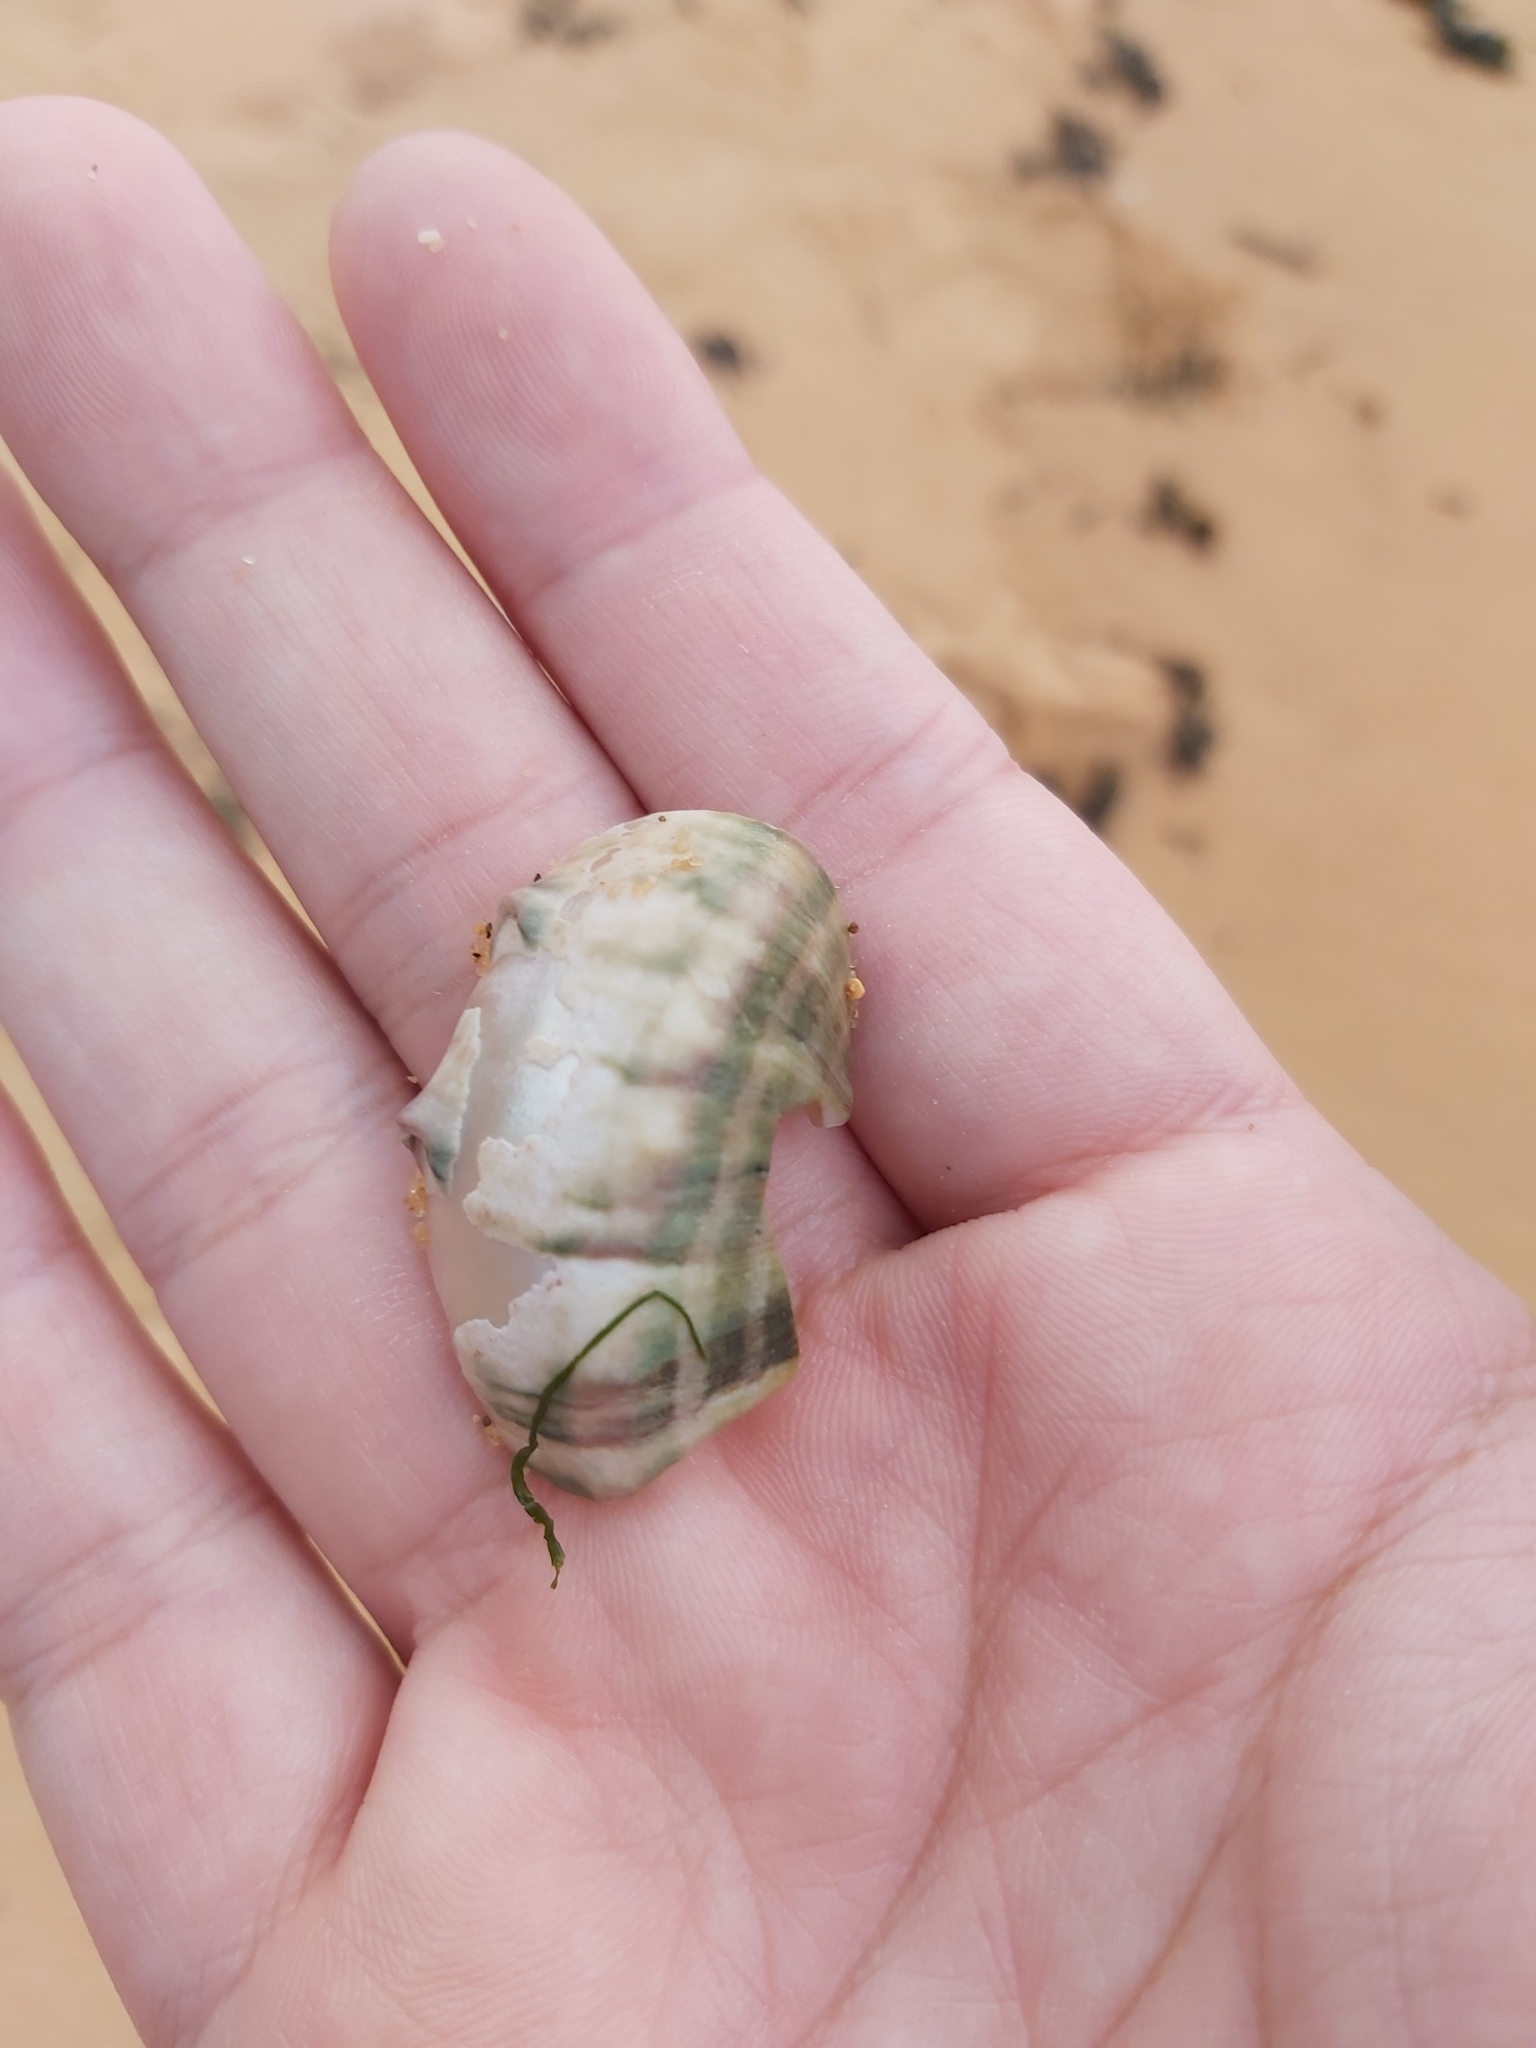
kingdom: Animalia
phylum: Mollusca
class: Gastropoda
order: Trochida
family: Turbinidae
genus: Turbo
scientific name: Turbo militaris
